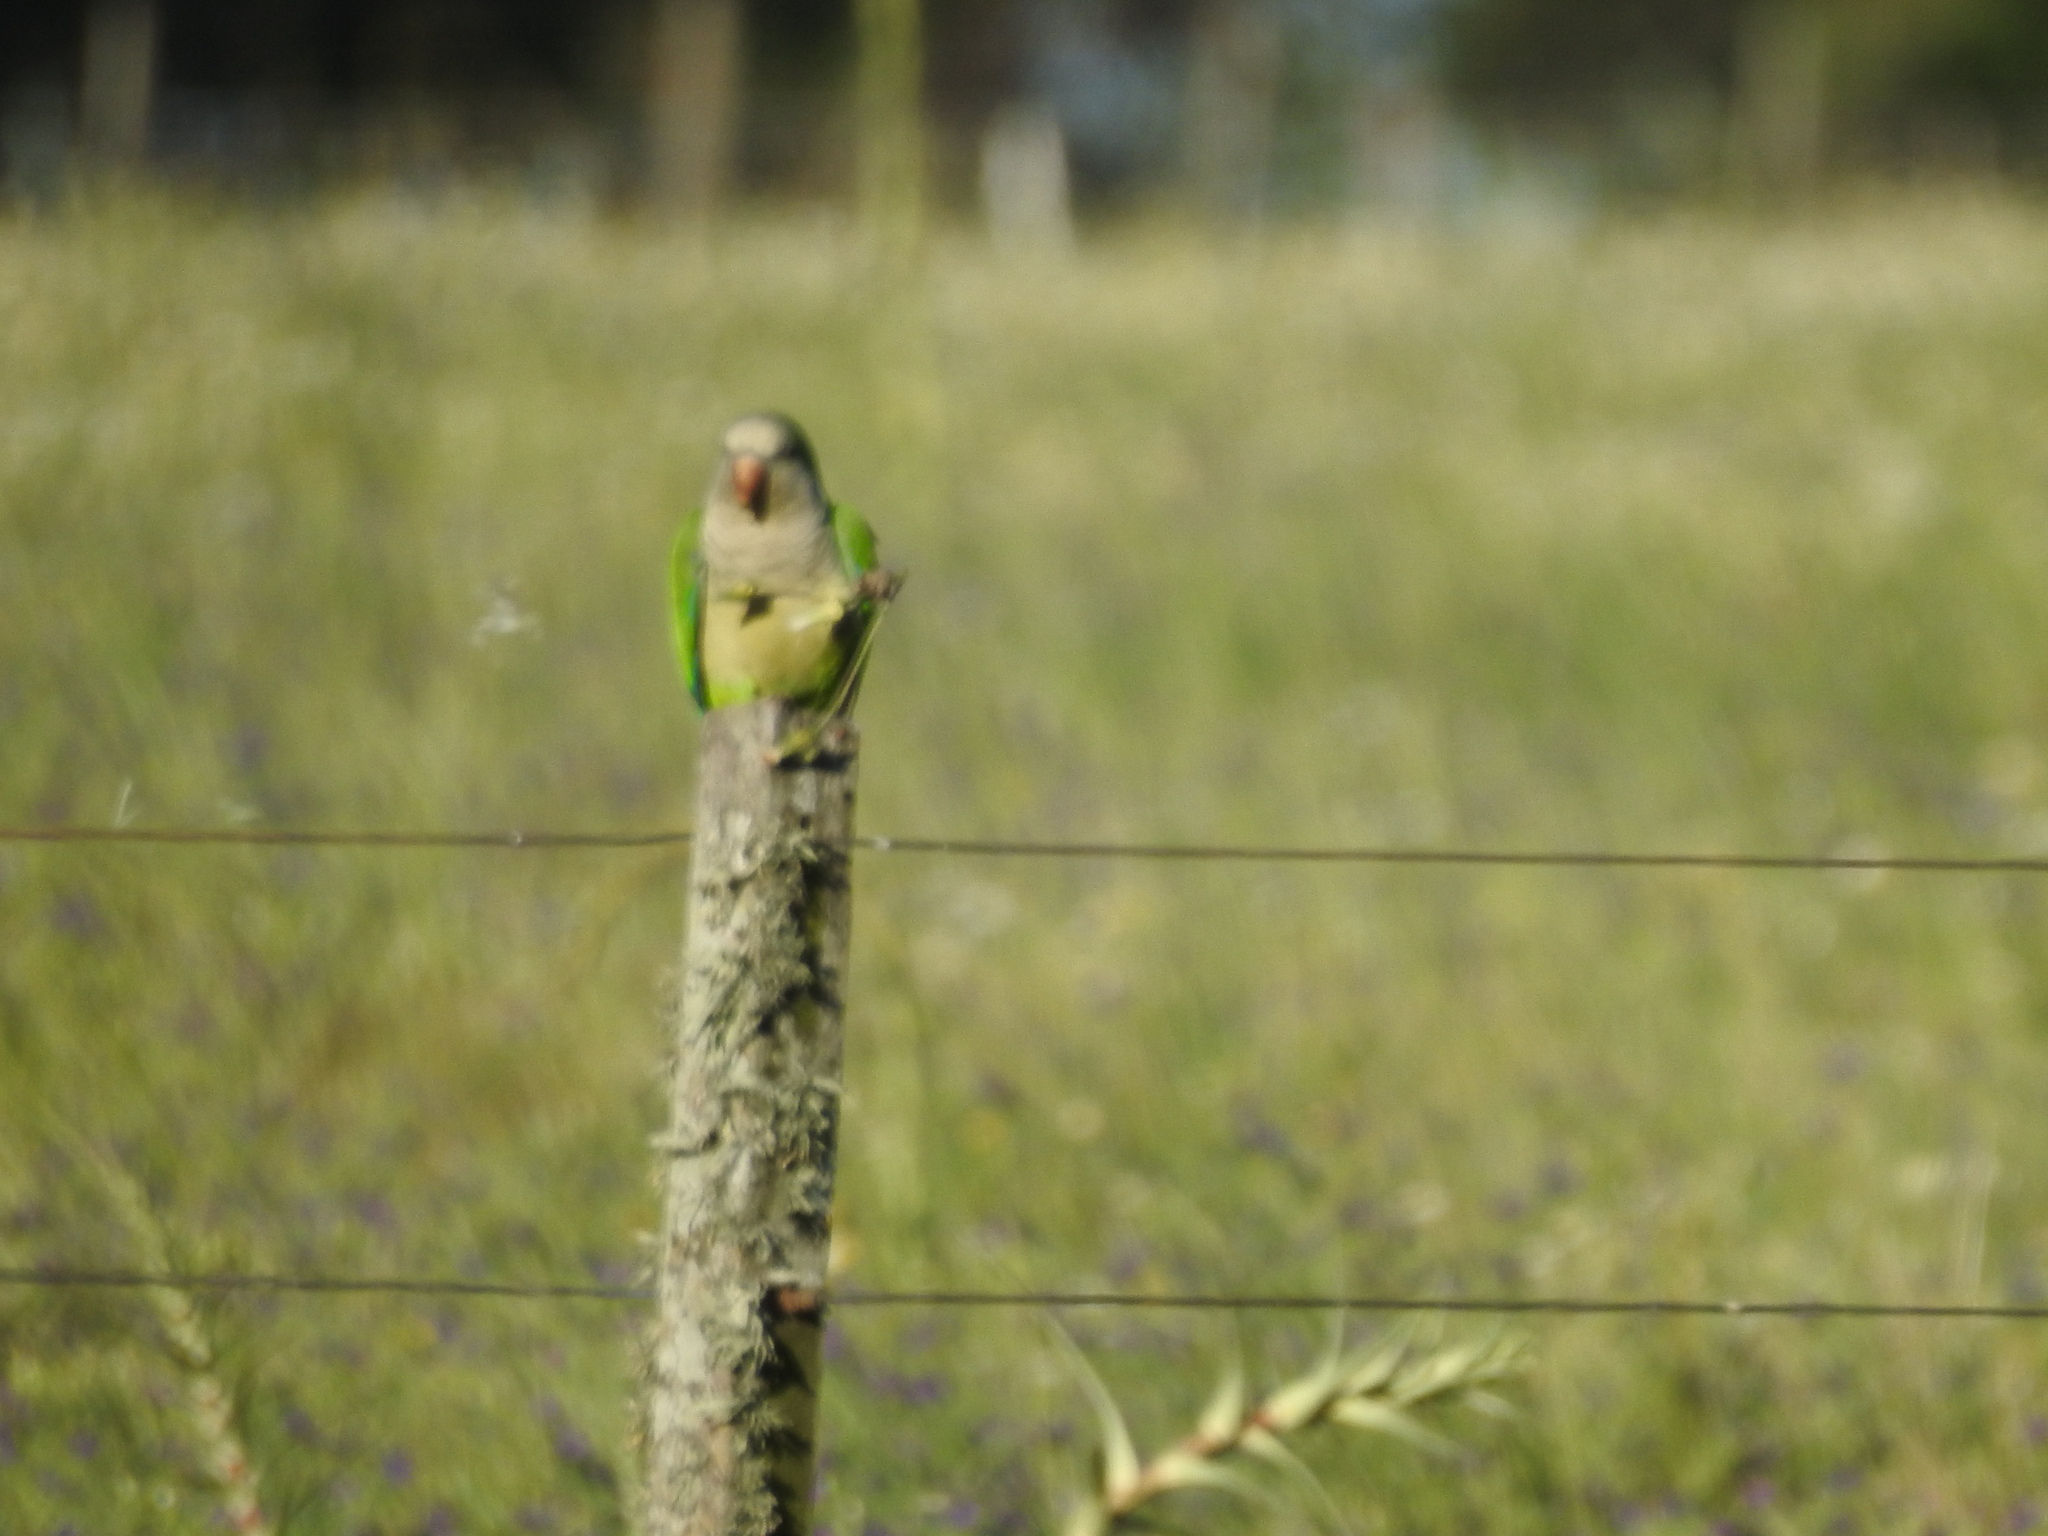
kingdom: Animalia
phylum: Chordata
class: Aves
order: Psittaciformes
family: Psittacidae
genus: Myiopsitta
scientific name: Myiopsitta monachus
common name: Monk parakeet
